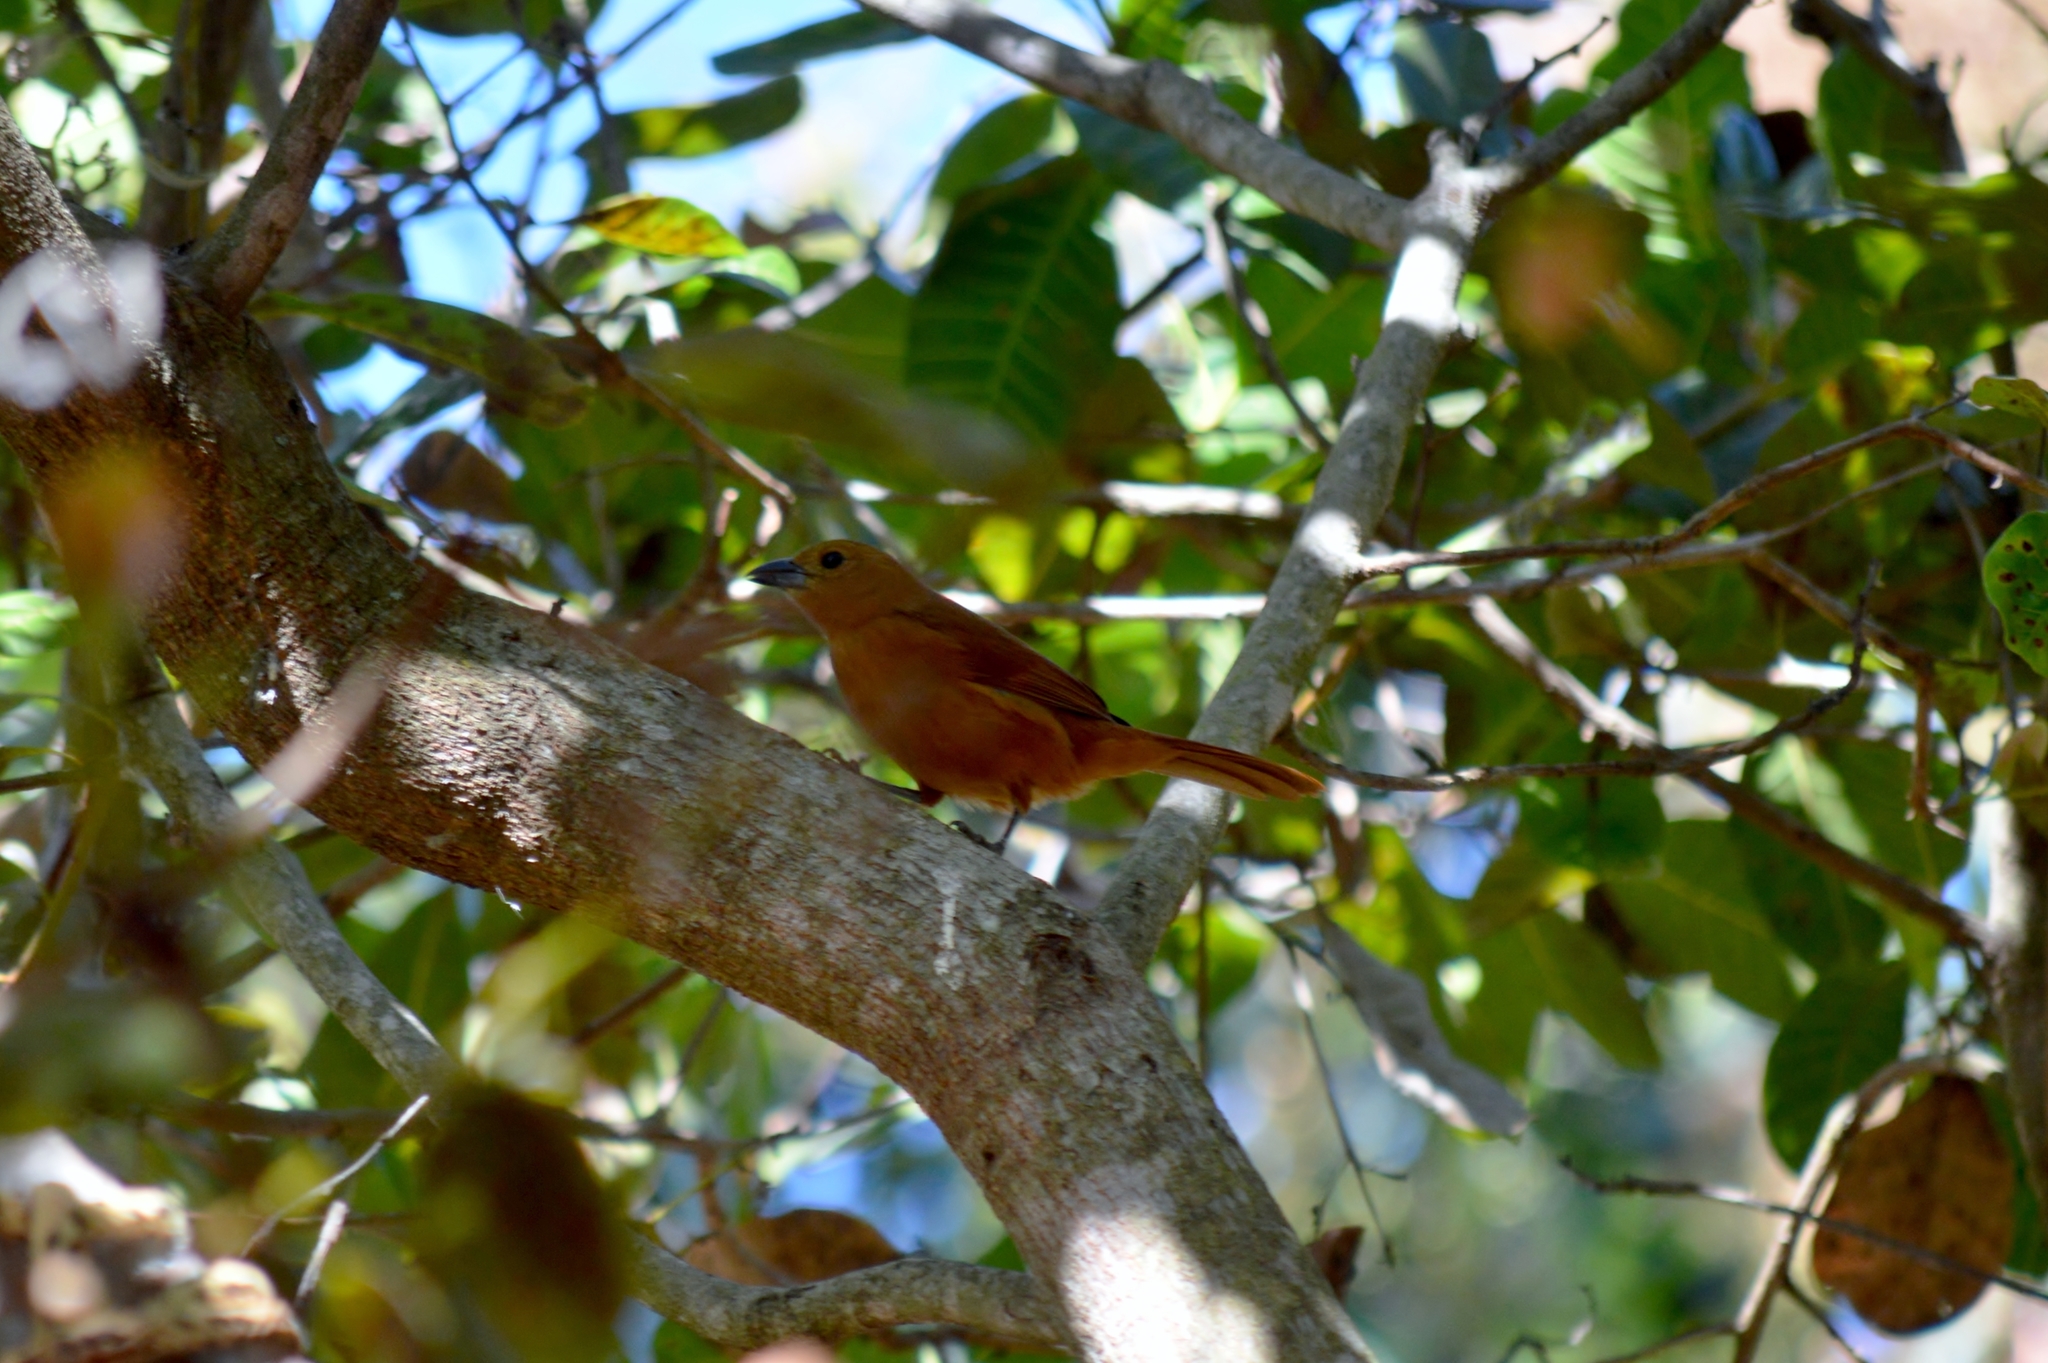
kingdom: Animalia
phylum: Chordata
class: Aves
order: Passeriformes
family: Thraupidae
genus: Tachyphonus
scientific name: Tachyphonus rufus
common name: White-lined tanager
